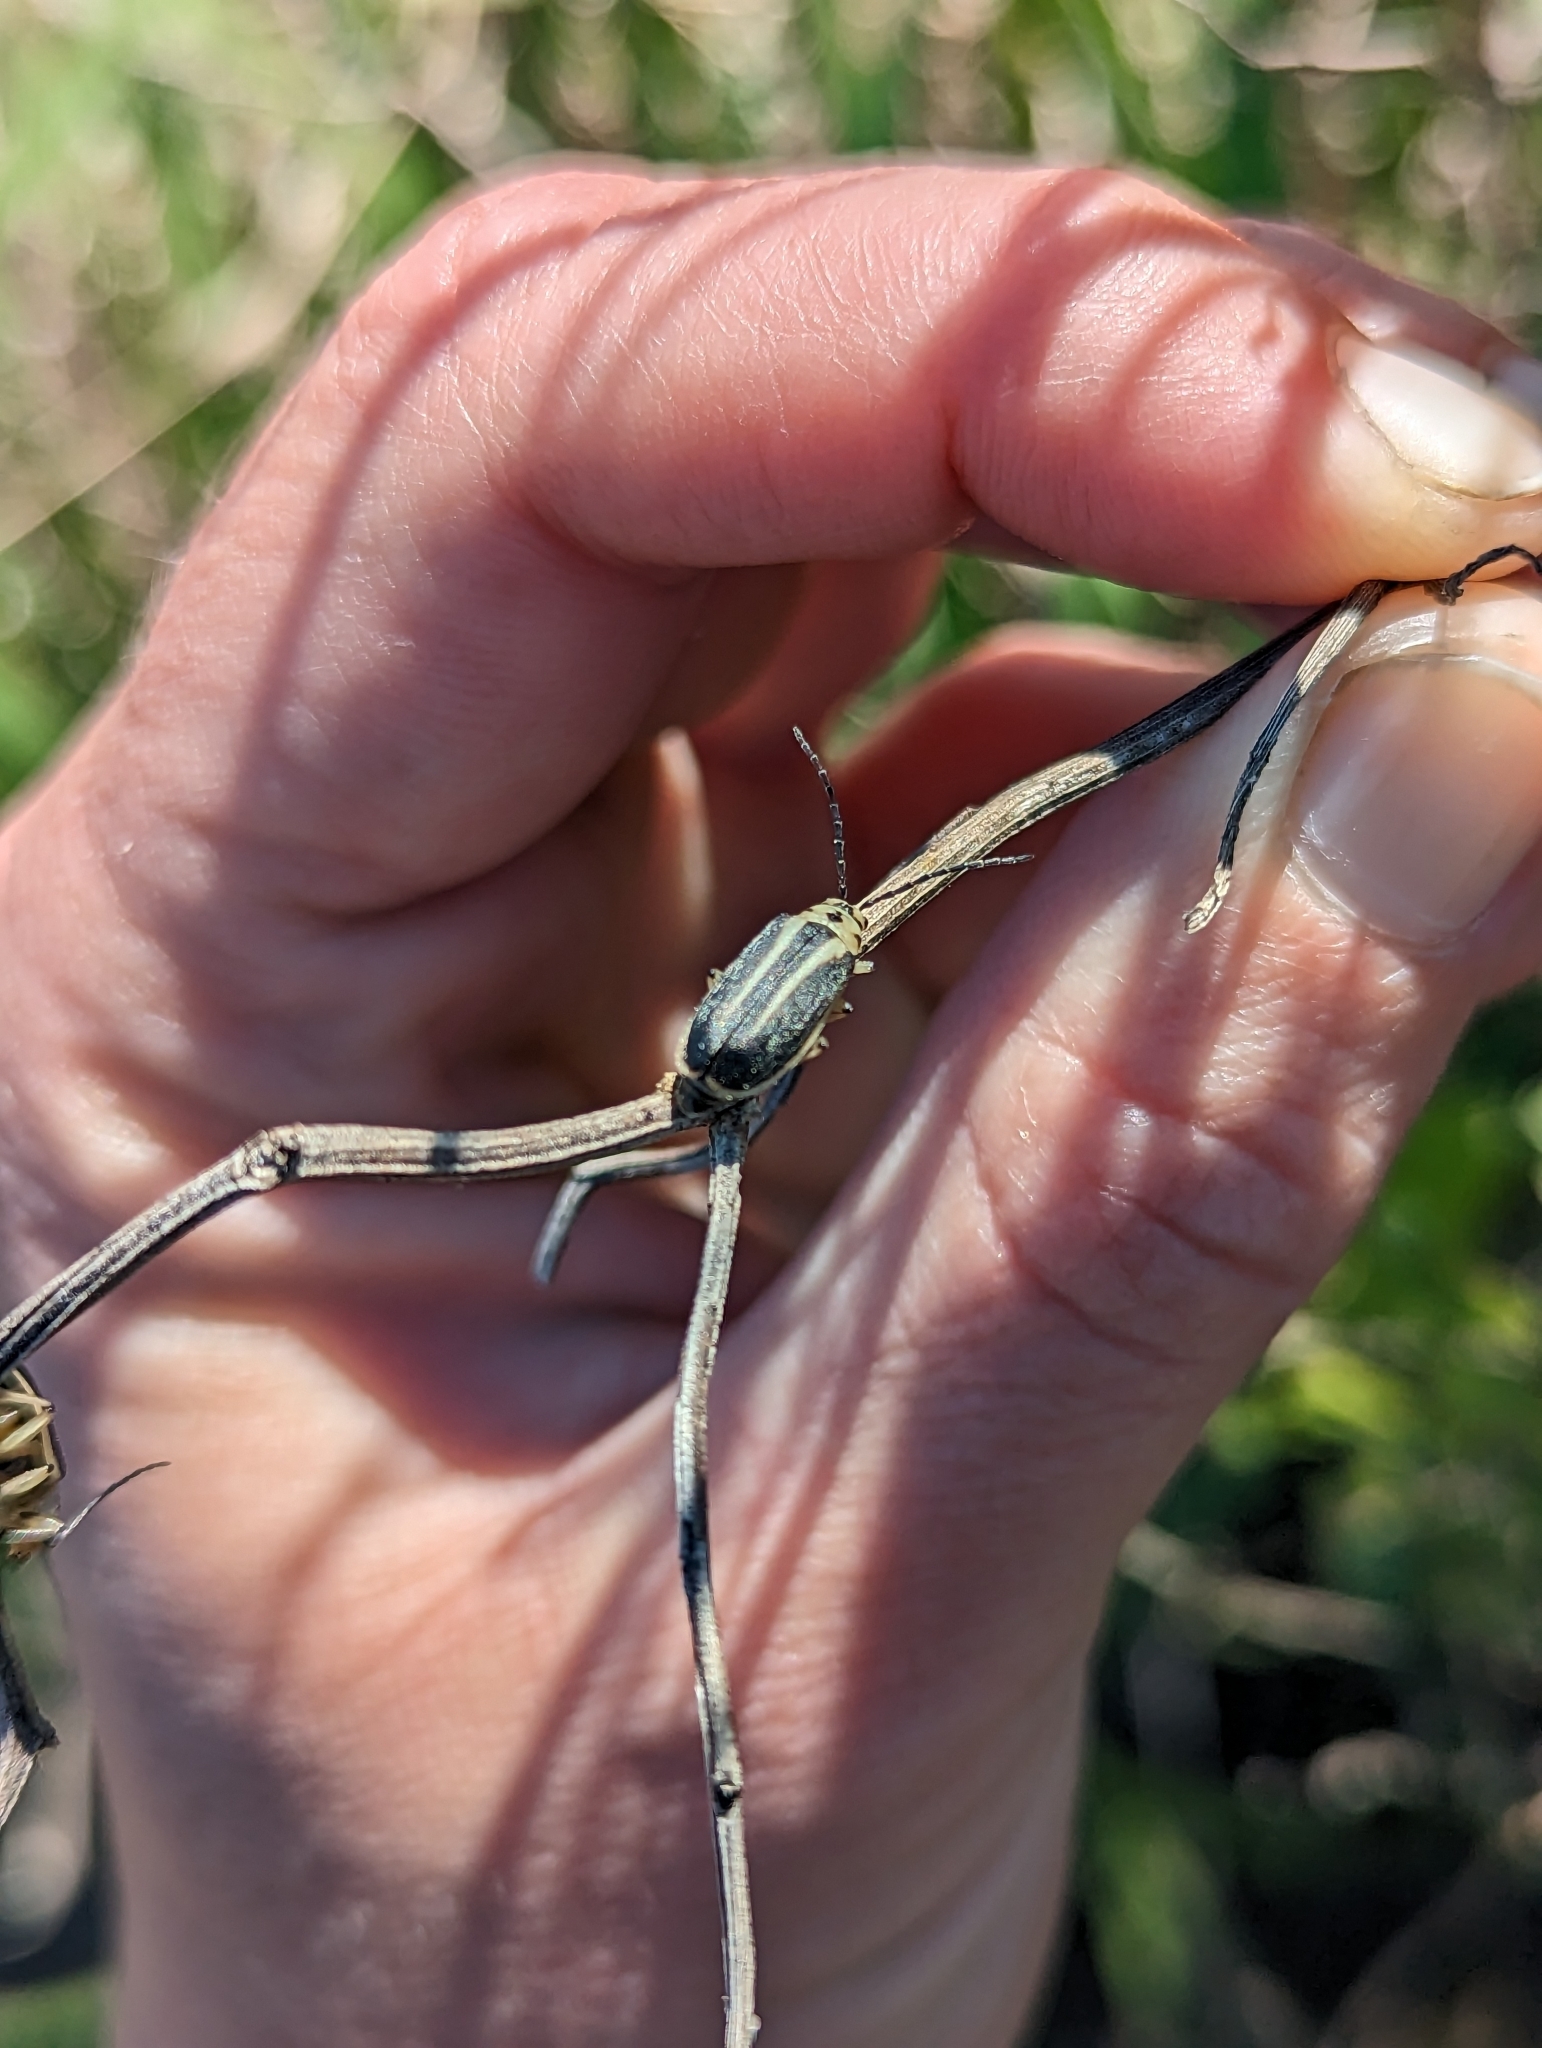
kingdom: Animalia
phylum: Arthropoda
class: Insecta
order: Coleoptera
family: Chrysomelidae
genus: Trirhabda
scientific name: Trirhabda bacharidis
